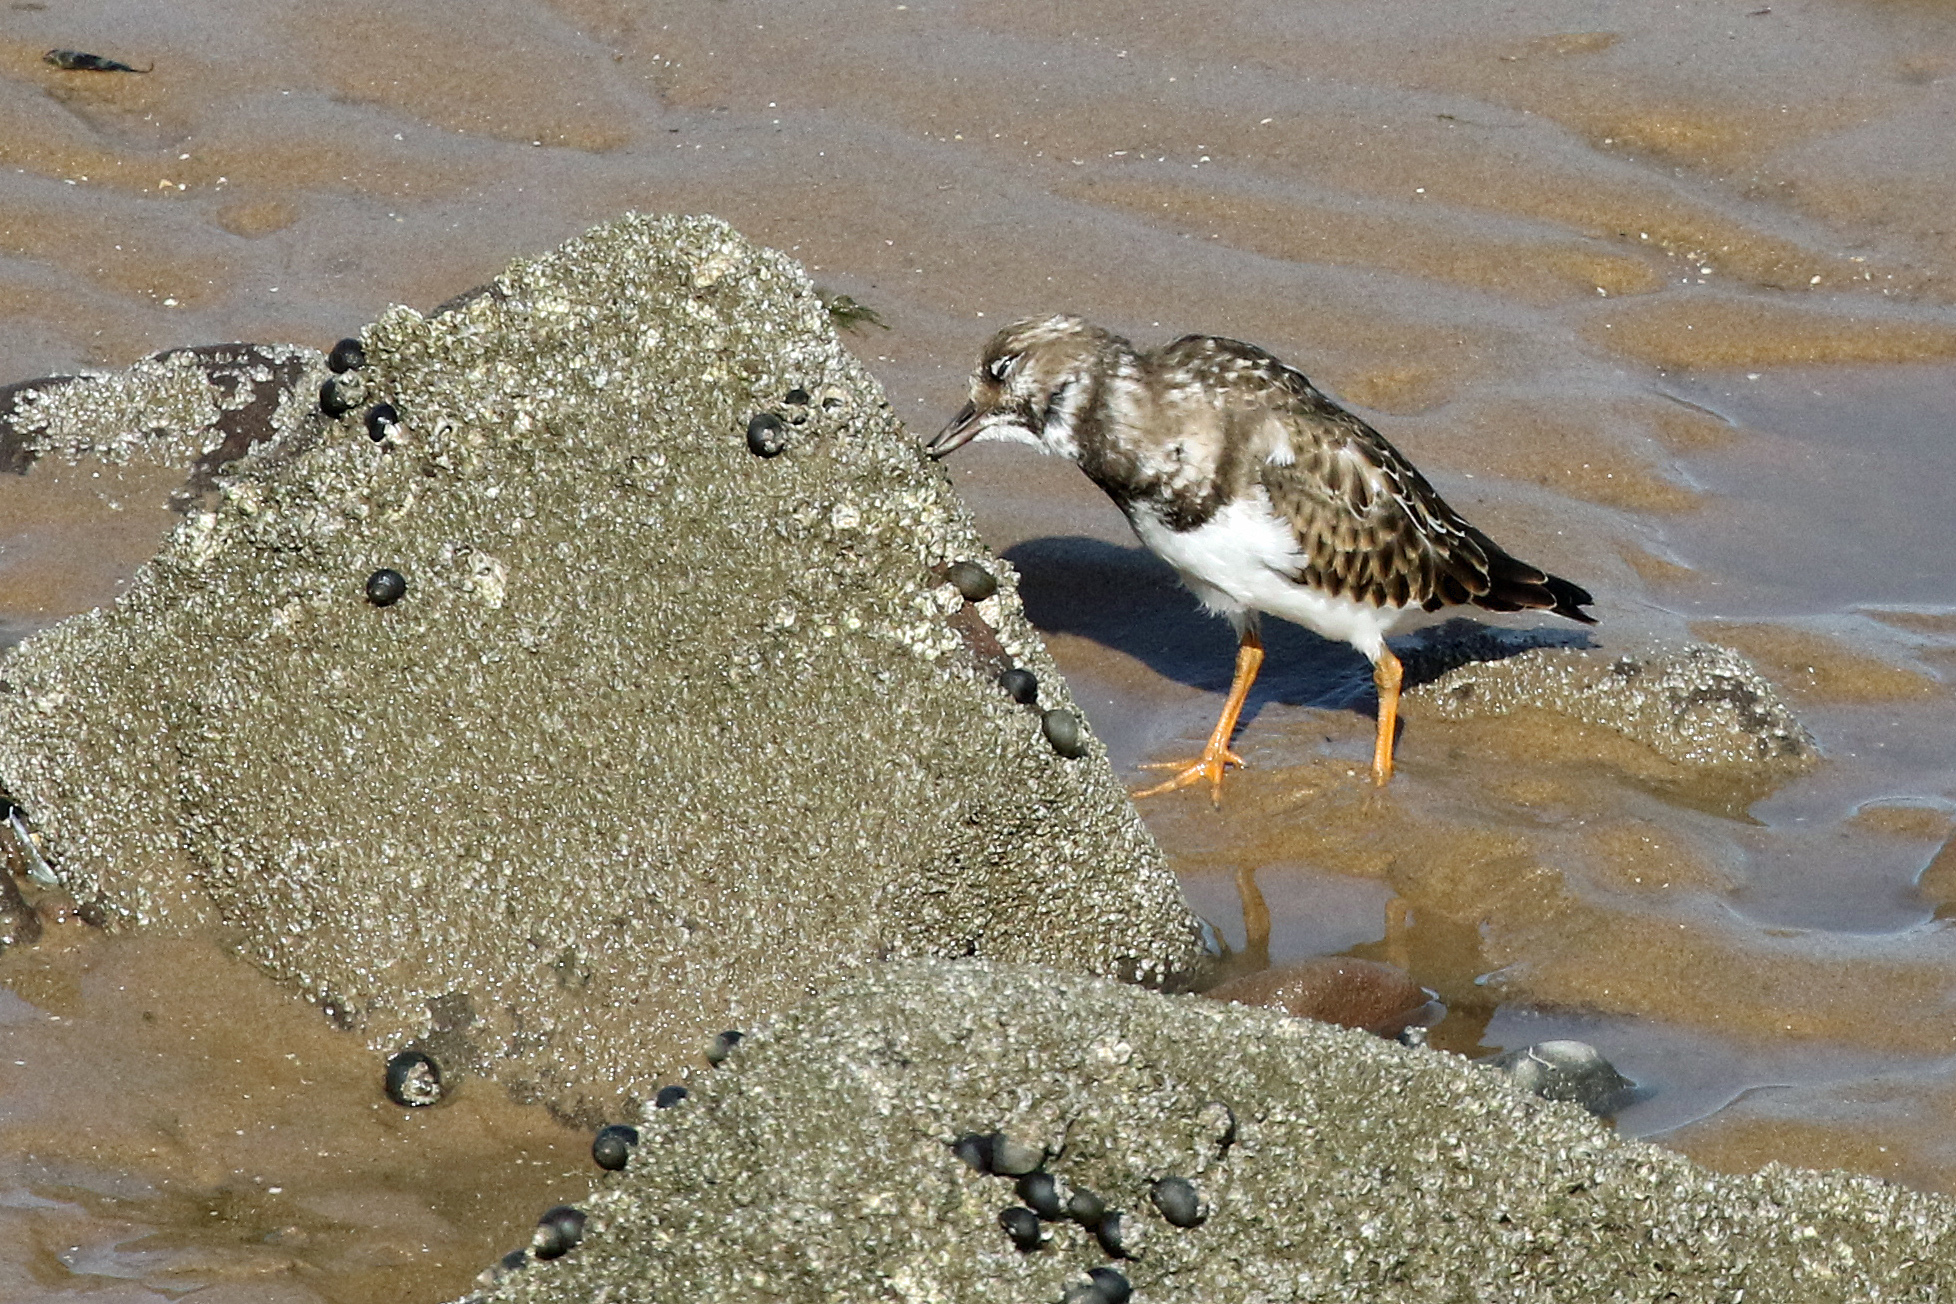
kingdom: Animalia
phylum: Chordata
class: Aves
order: Charadriiformes
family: Scolopacidae
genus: Arenaria
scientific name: Arenaria interpres
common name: Ruddy turnstone
